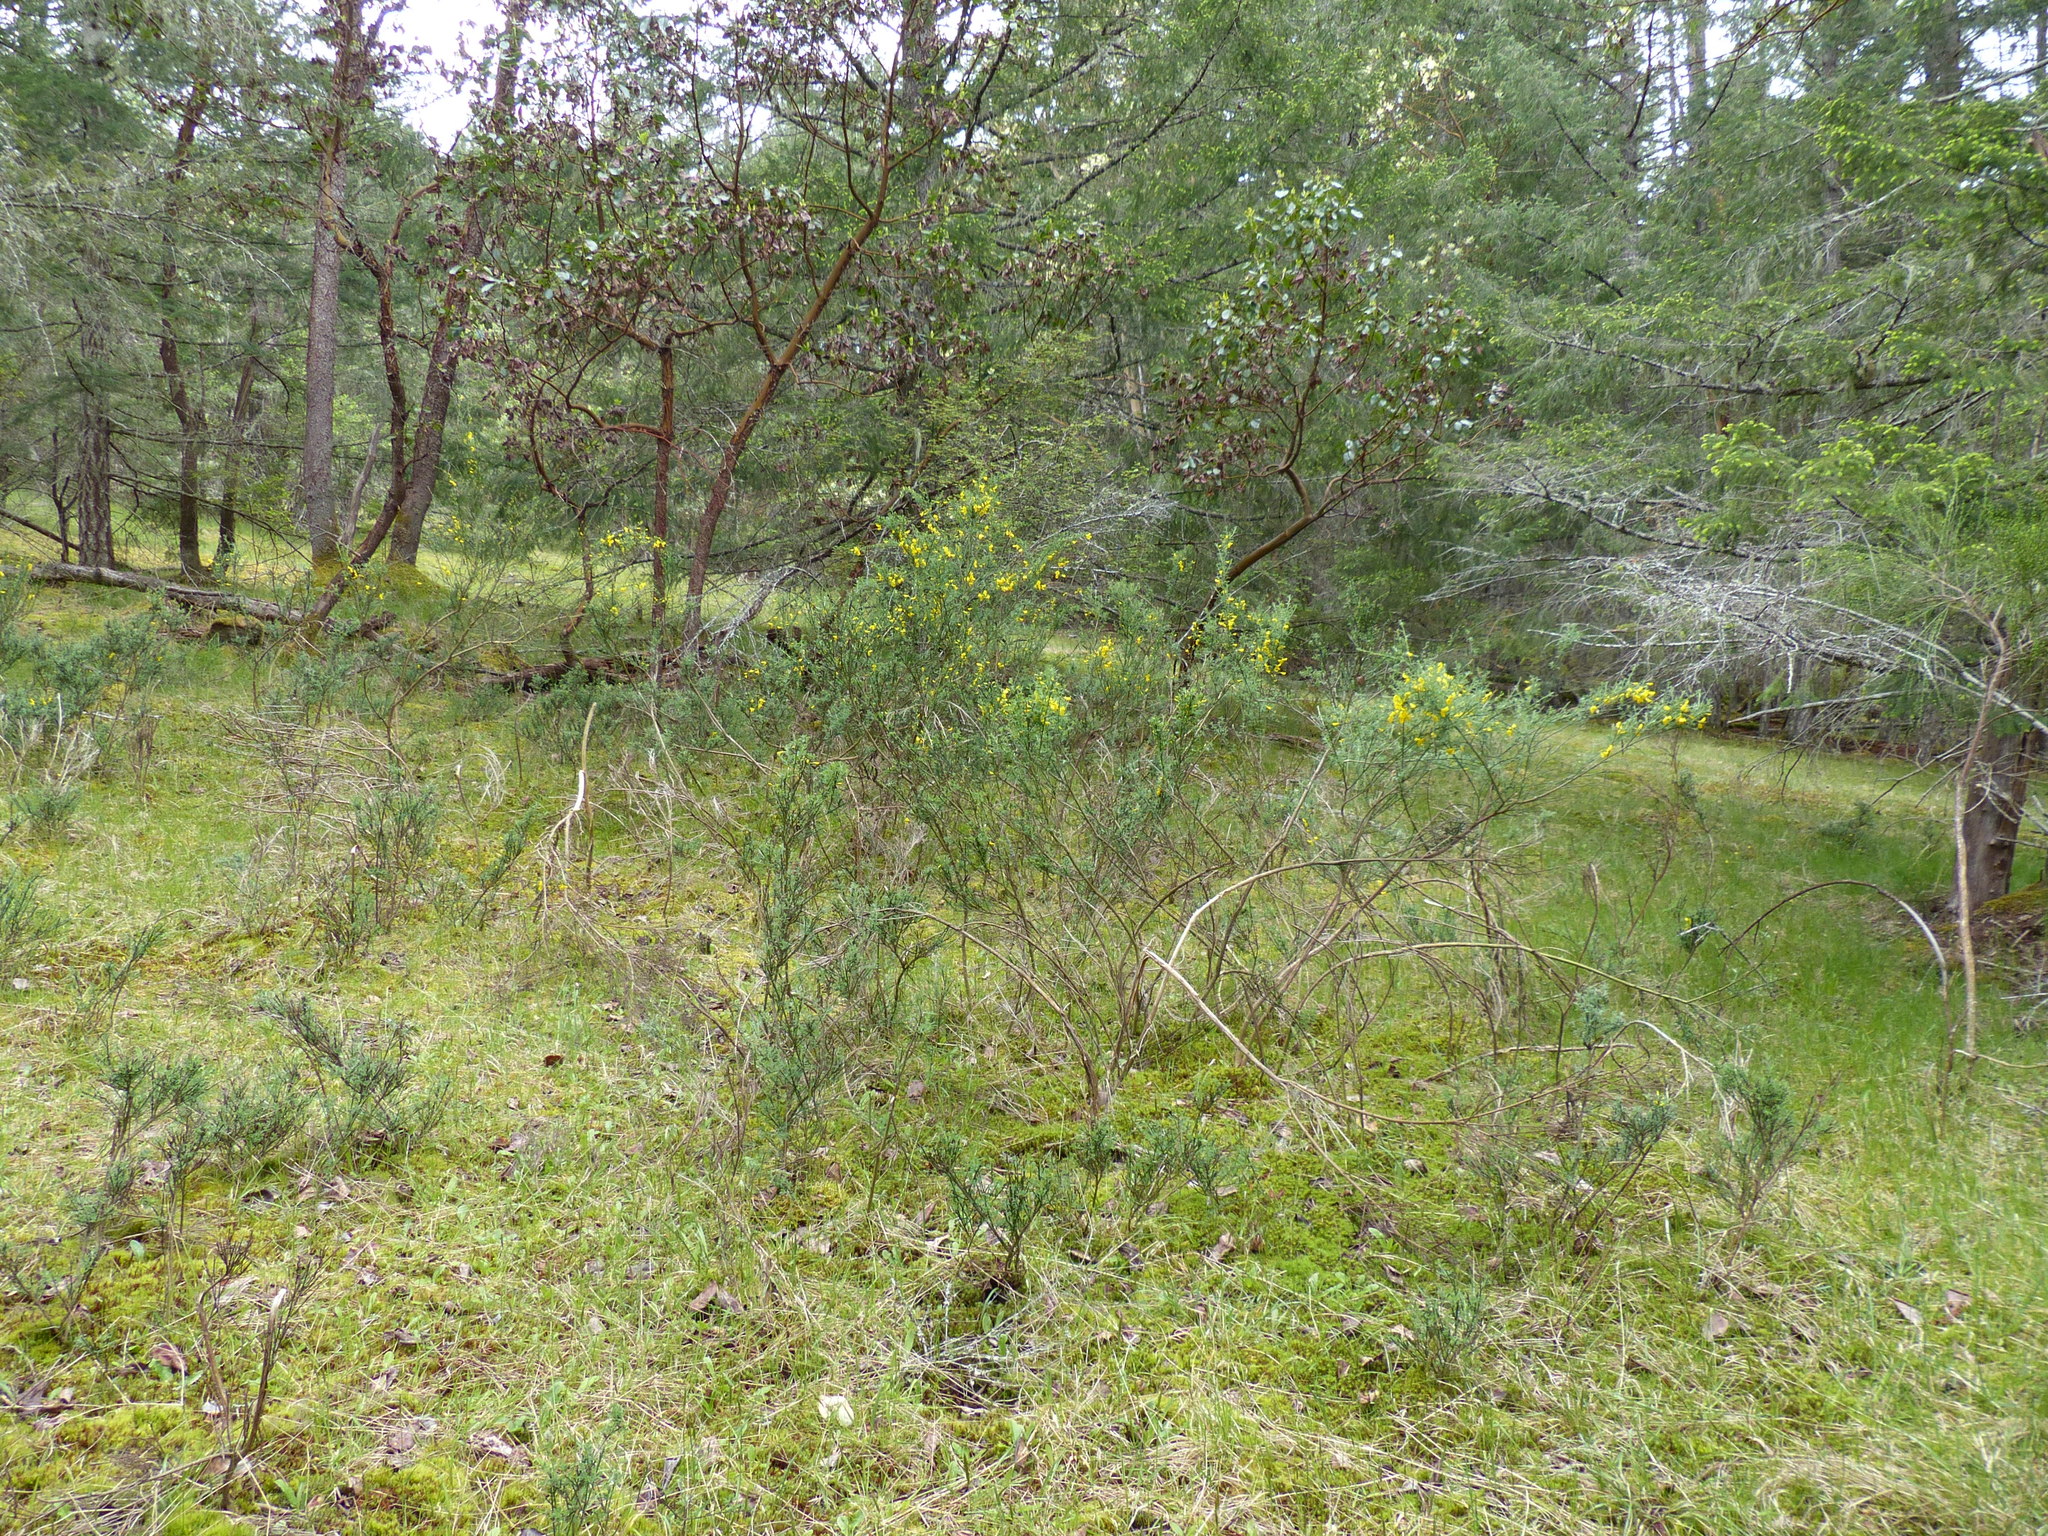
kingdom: Plantae
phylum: Tracheophyta
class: Magnoliopsida
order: Fabales
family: Fabaceae
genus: Cytisus
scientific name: Cytisus scoparius
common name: Scotch broom
